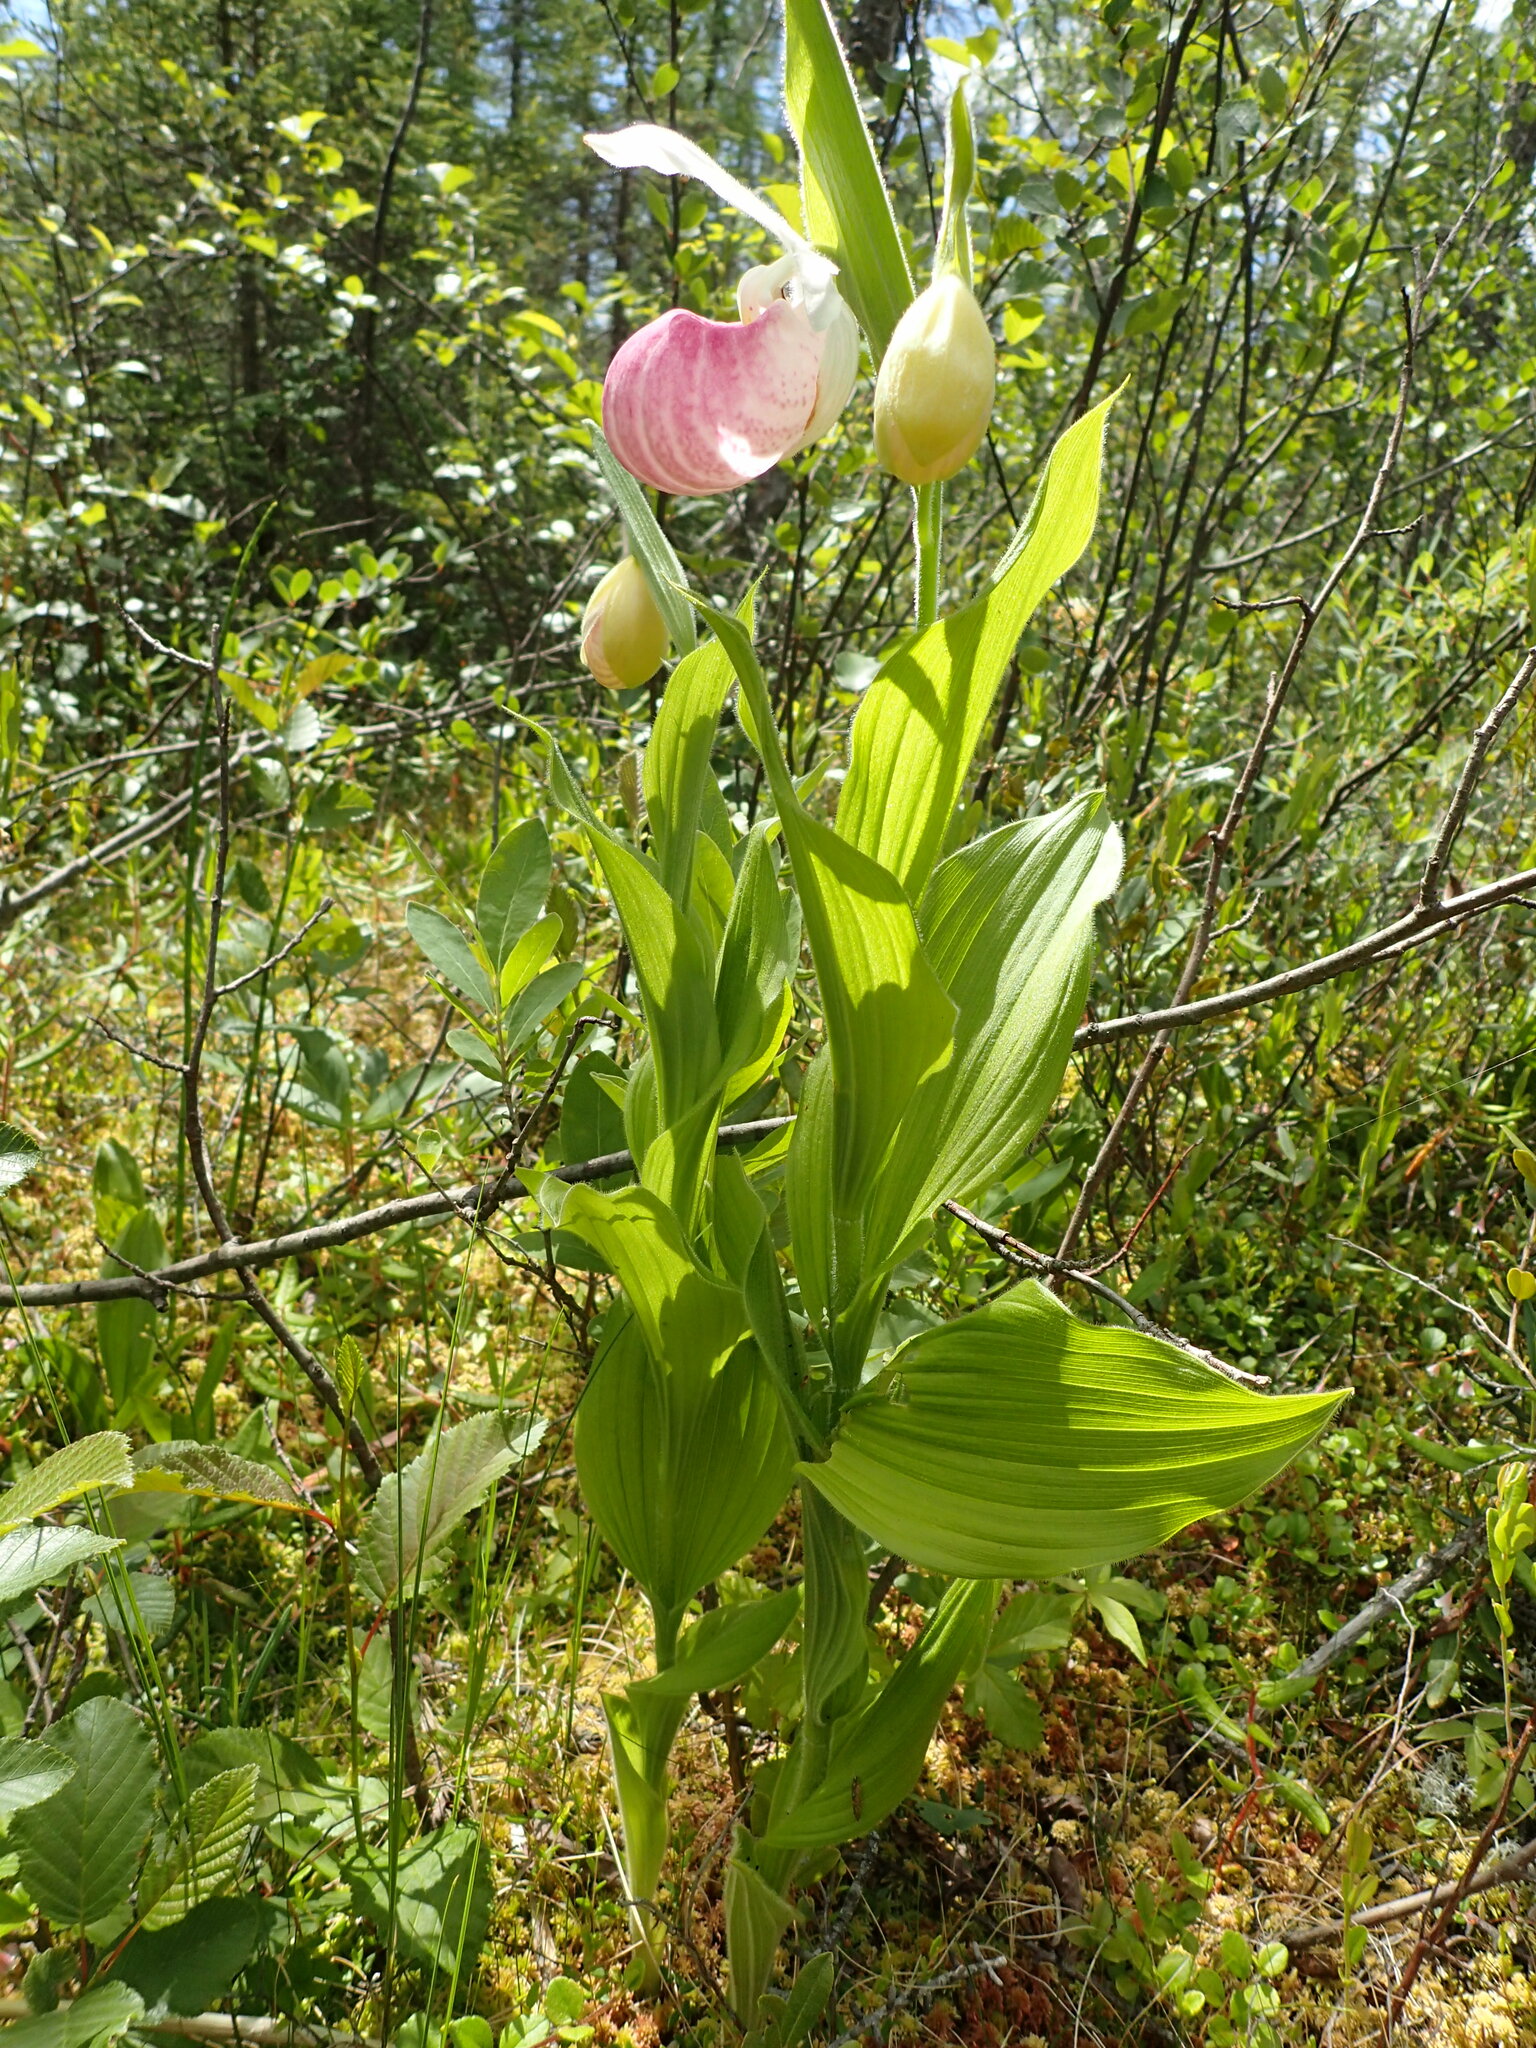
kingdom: Plantae
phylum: Tracheophyta
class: Liliopsida
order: Asparagales
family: Orchidaceae
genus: Cypripedium
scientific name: Cypripedium reginae
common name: Queen lady's-slipper
